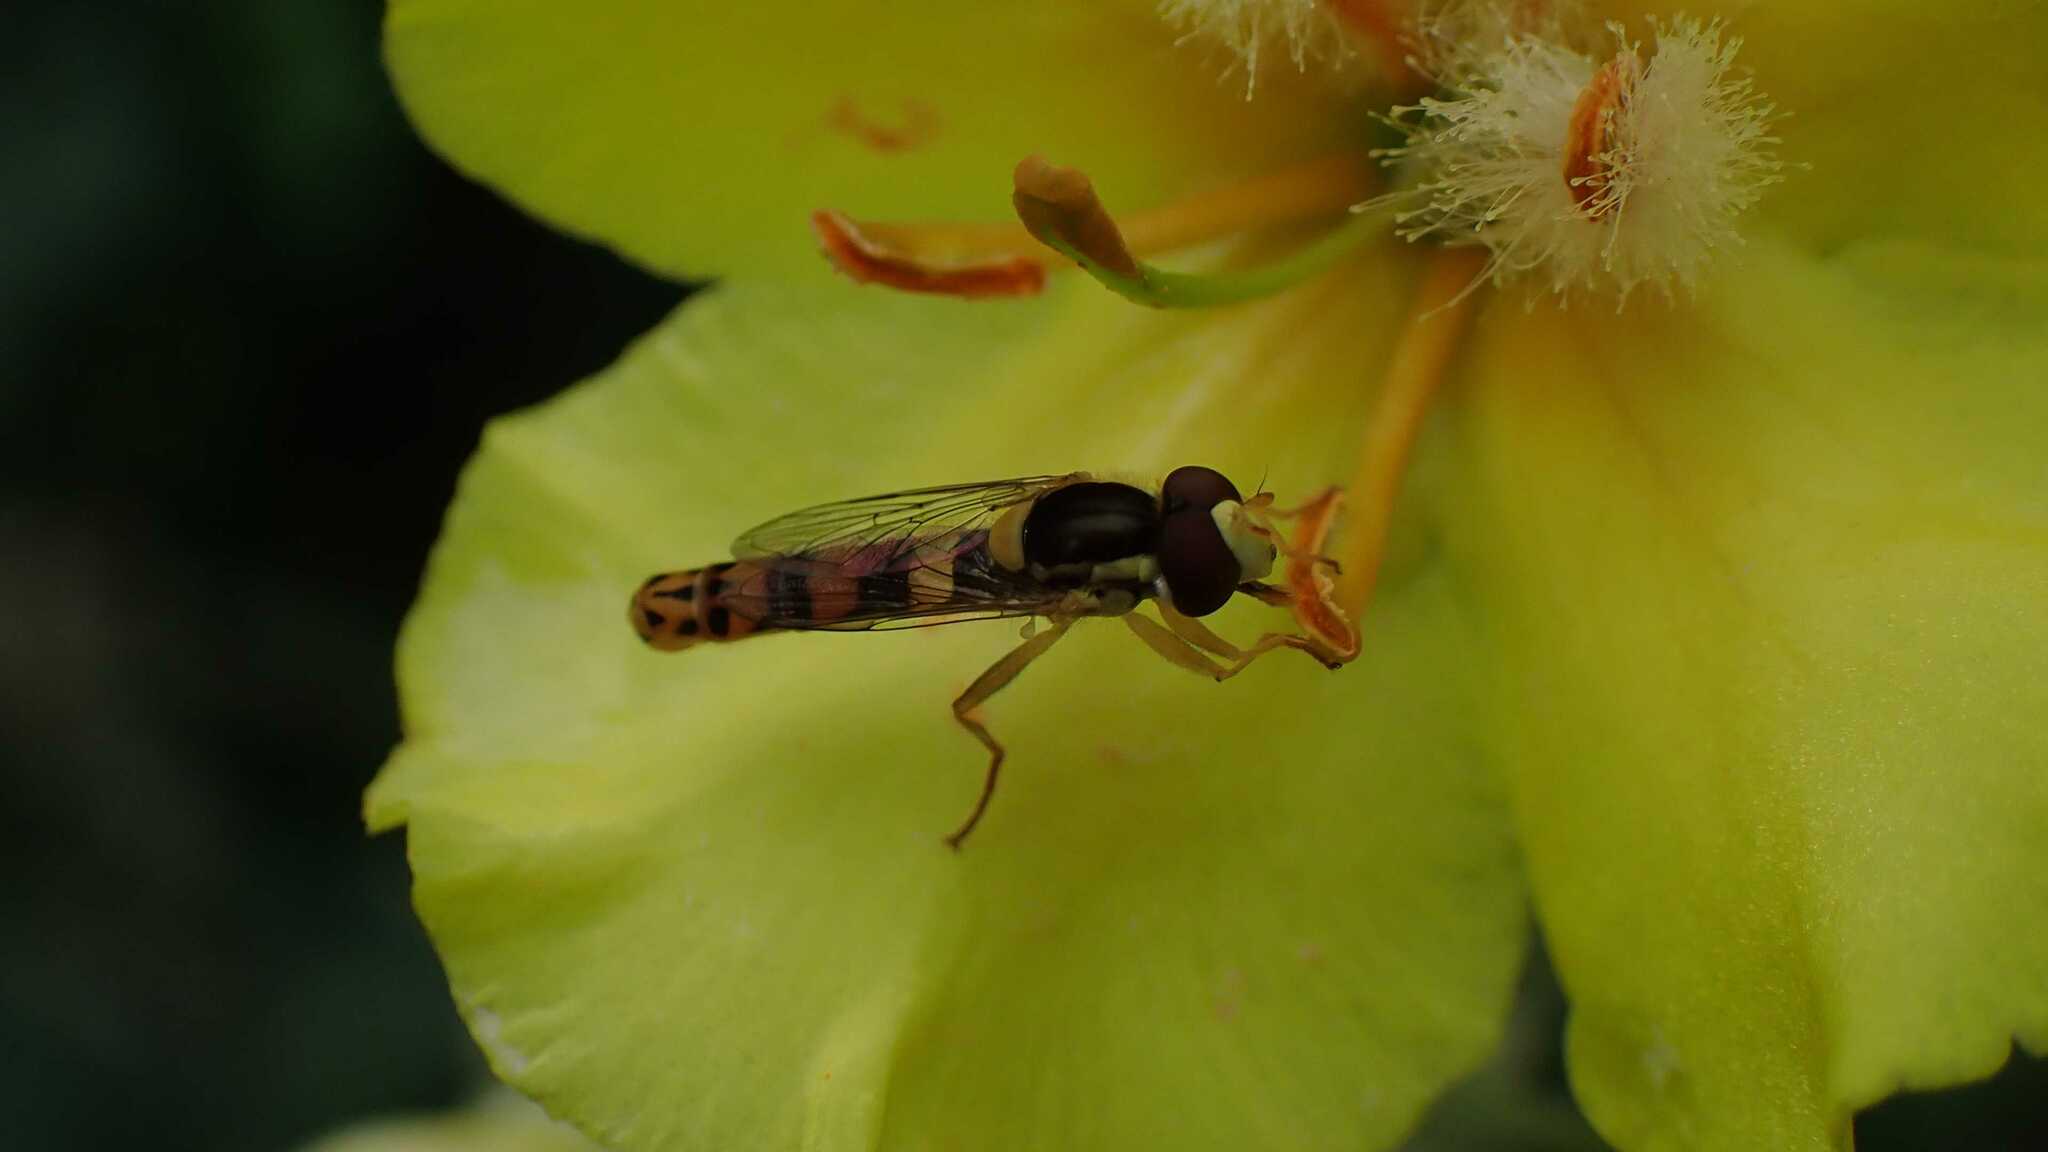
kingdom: Animalia
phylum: Arthropoda
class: Insecta
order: Diptera
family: Syrphidae
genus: Sphaerophoria
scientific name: Sphaerophoria scripta
